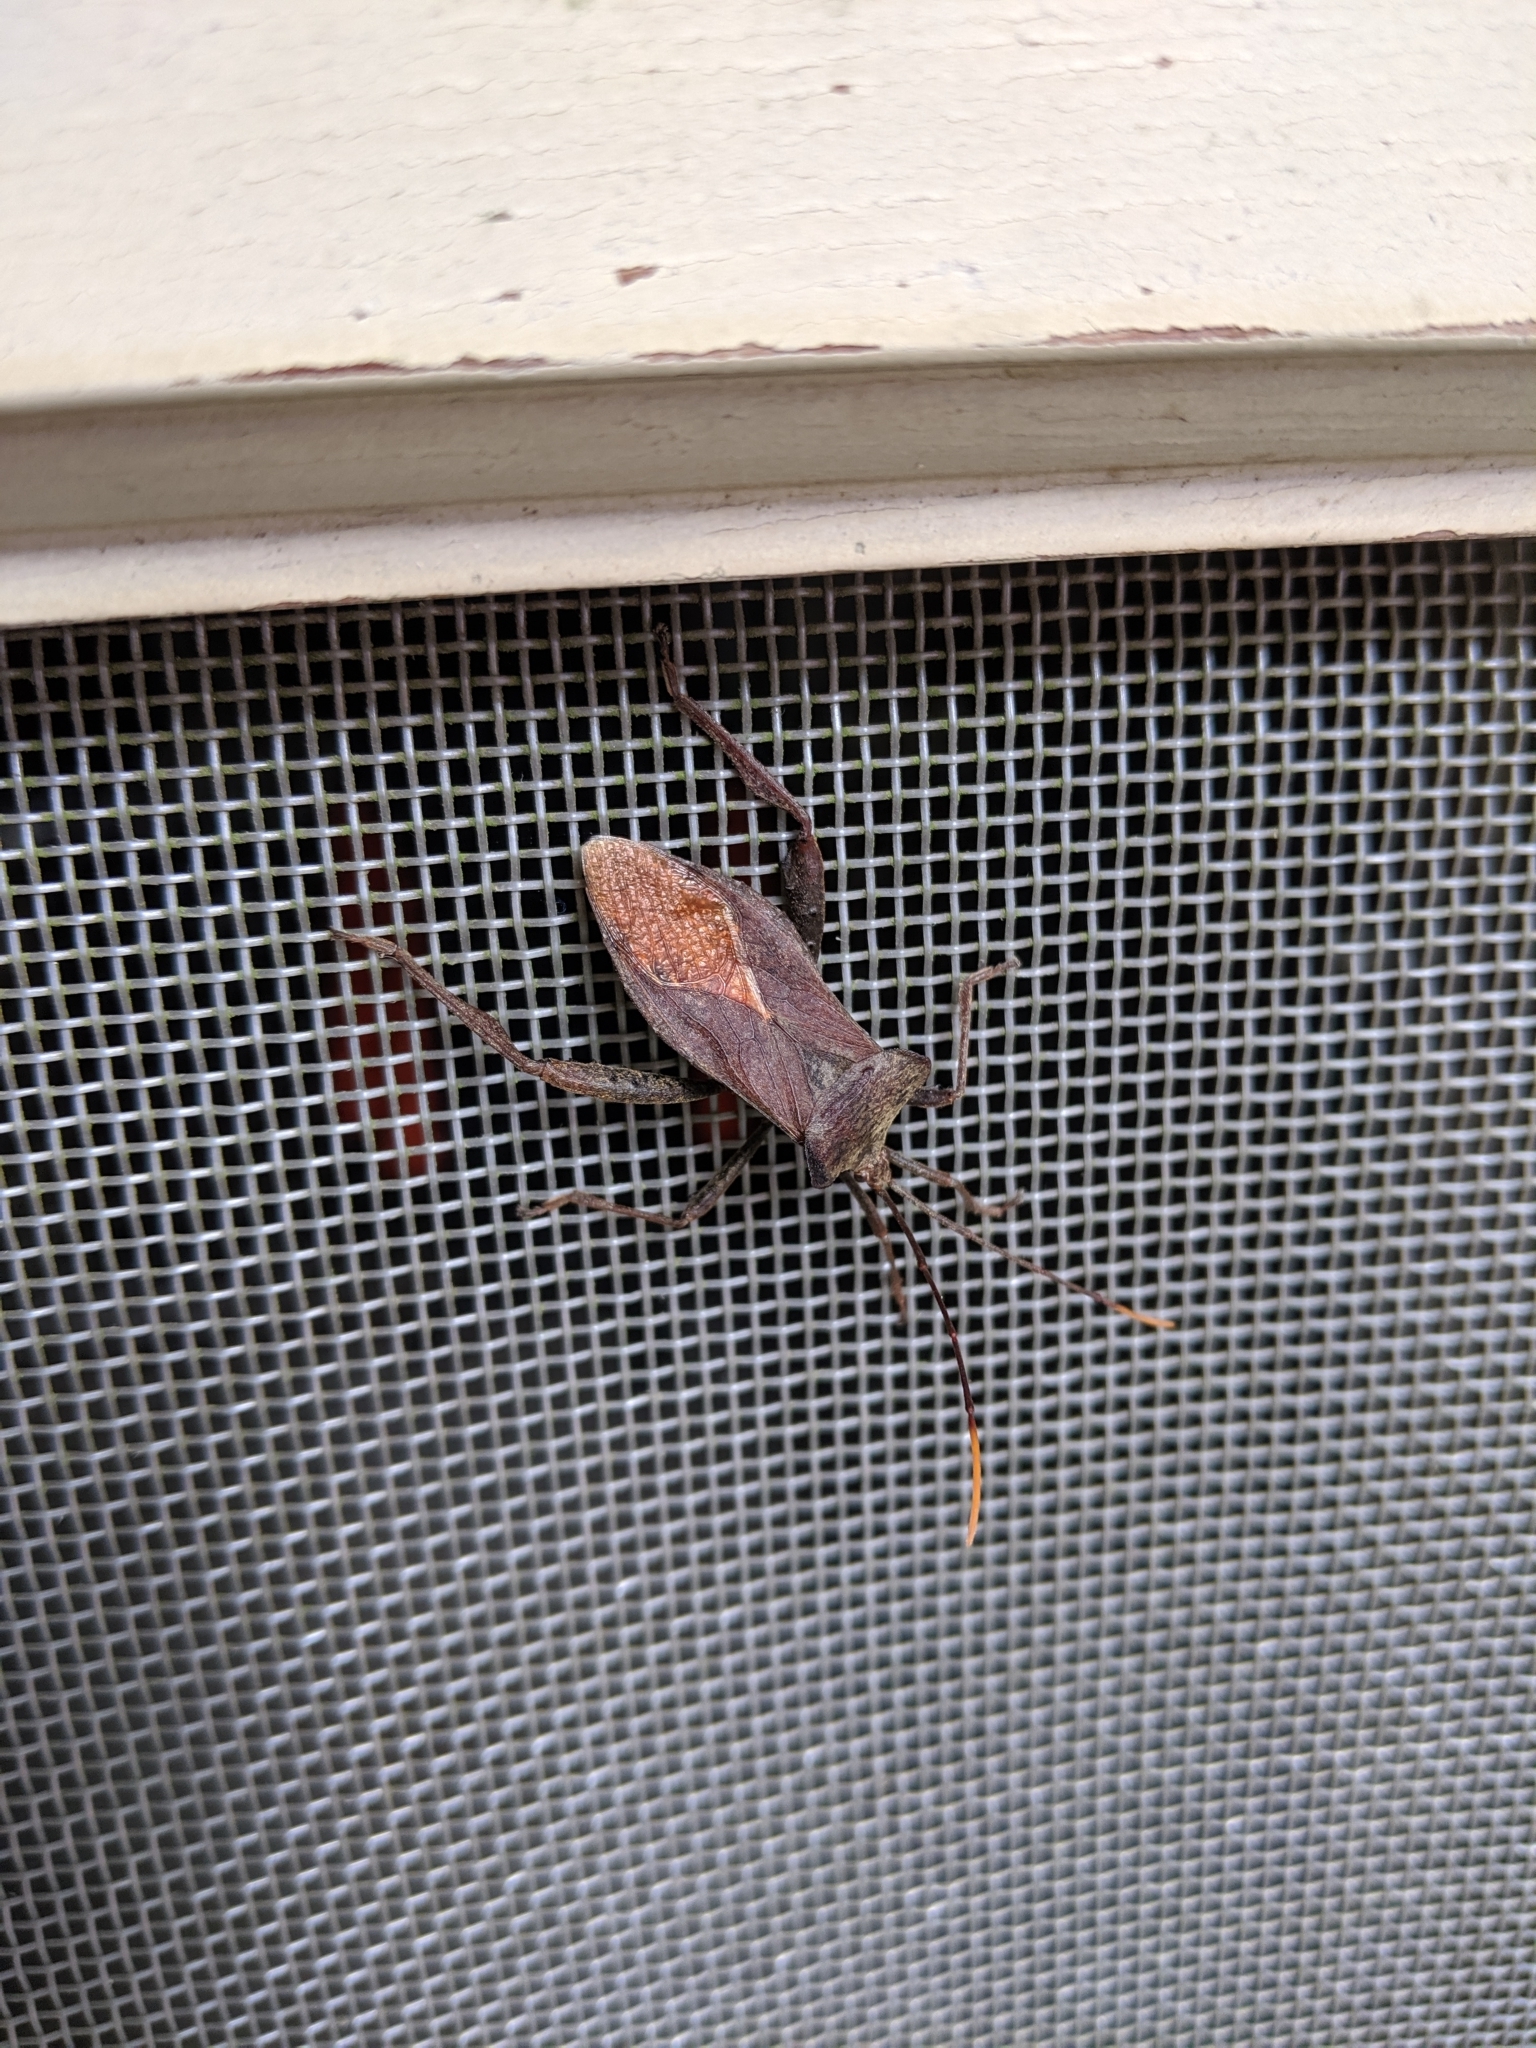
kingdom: Animalia
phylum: Arthropoda
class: Insecta
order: Hemiptera
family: Coreidae
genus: Rhamnomia
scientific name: Rhamnomia dubia
